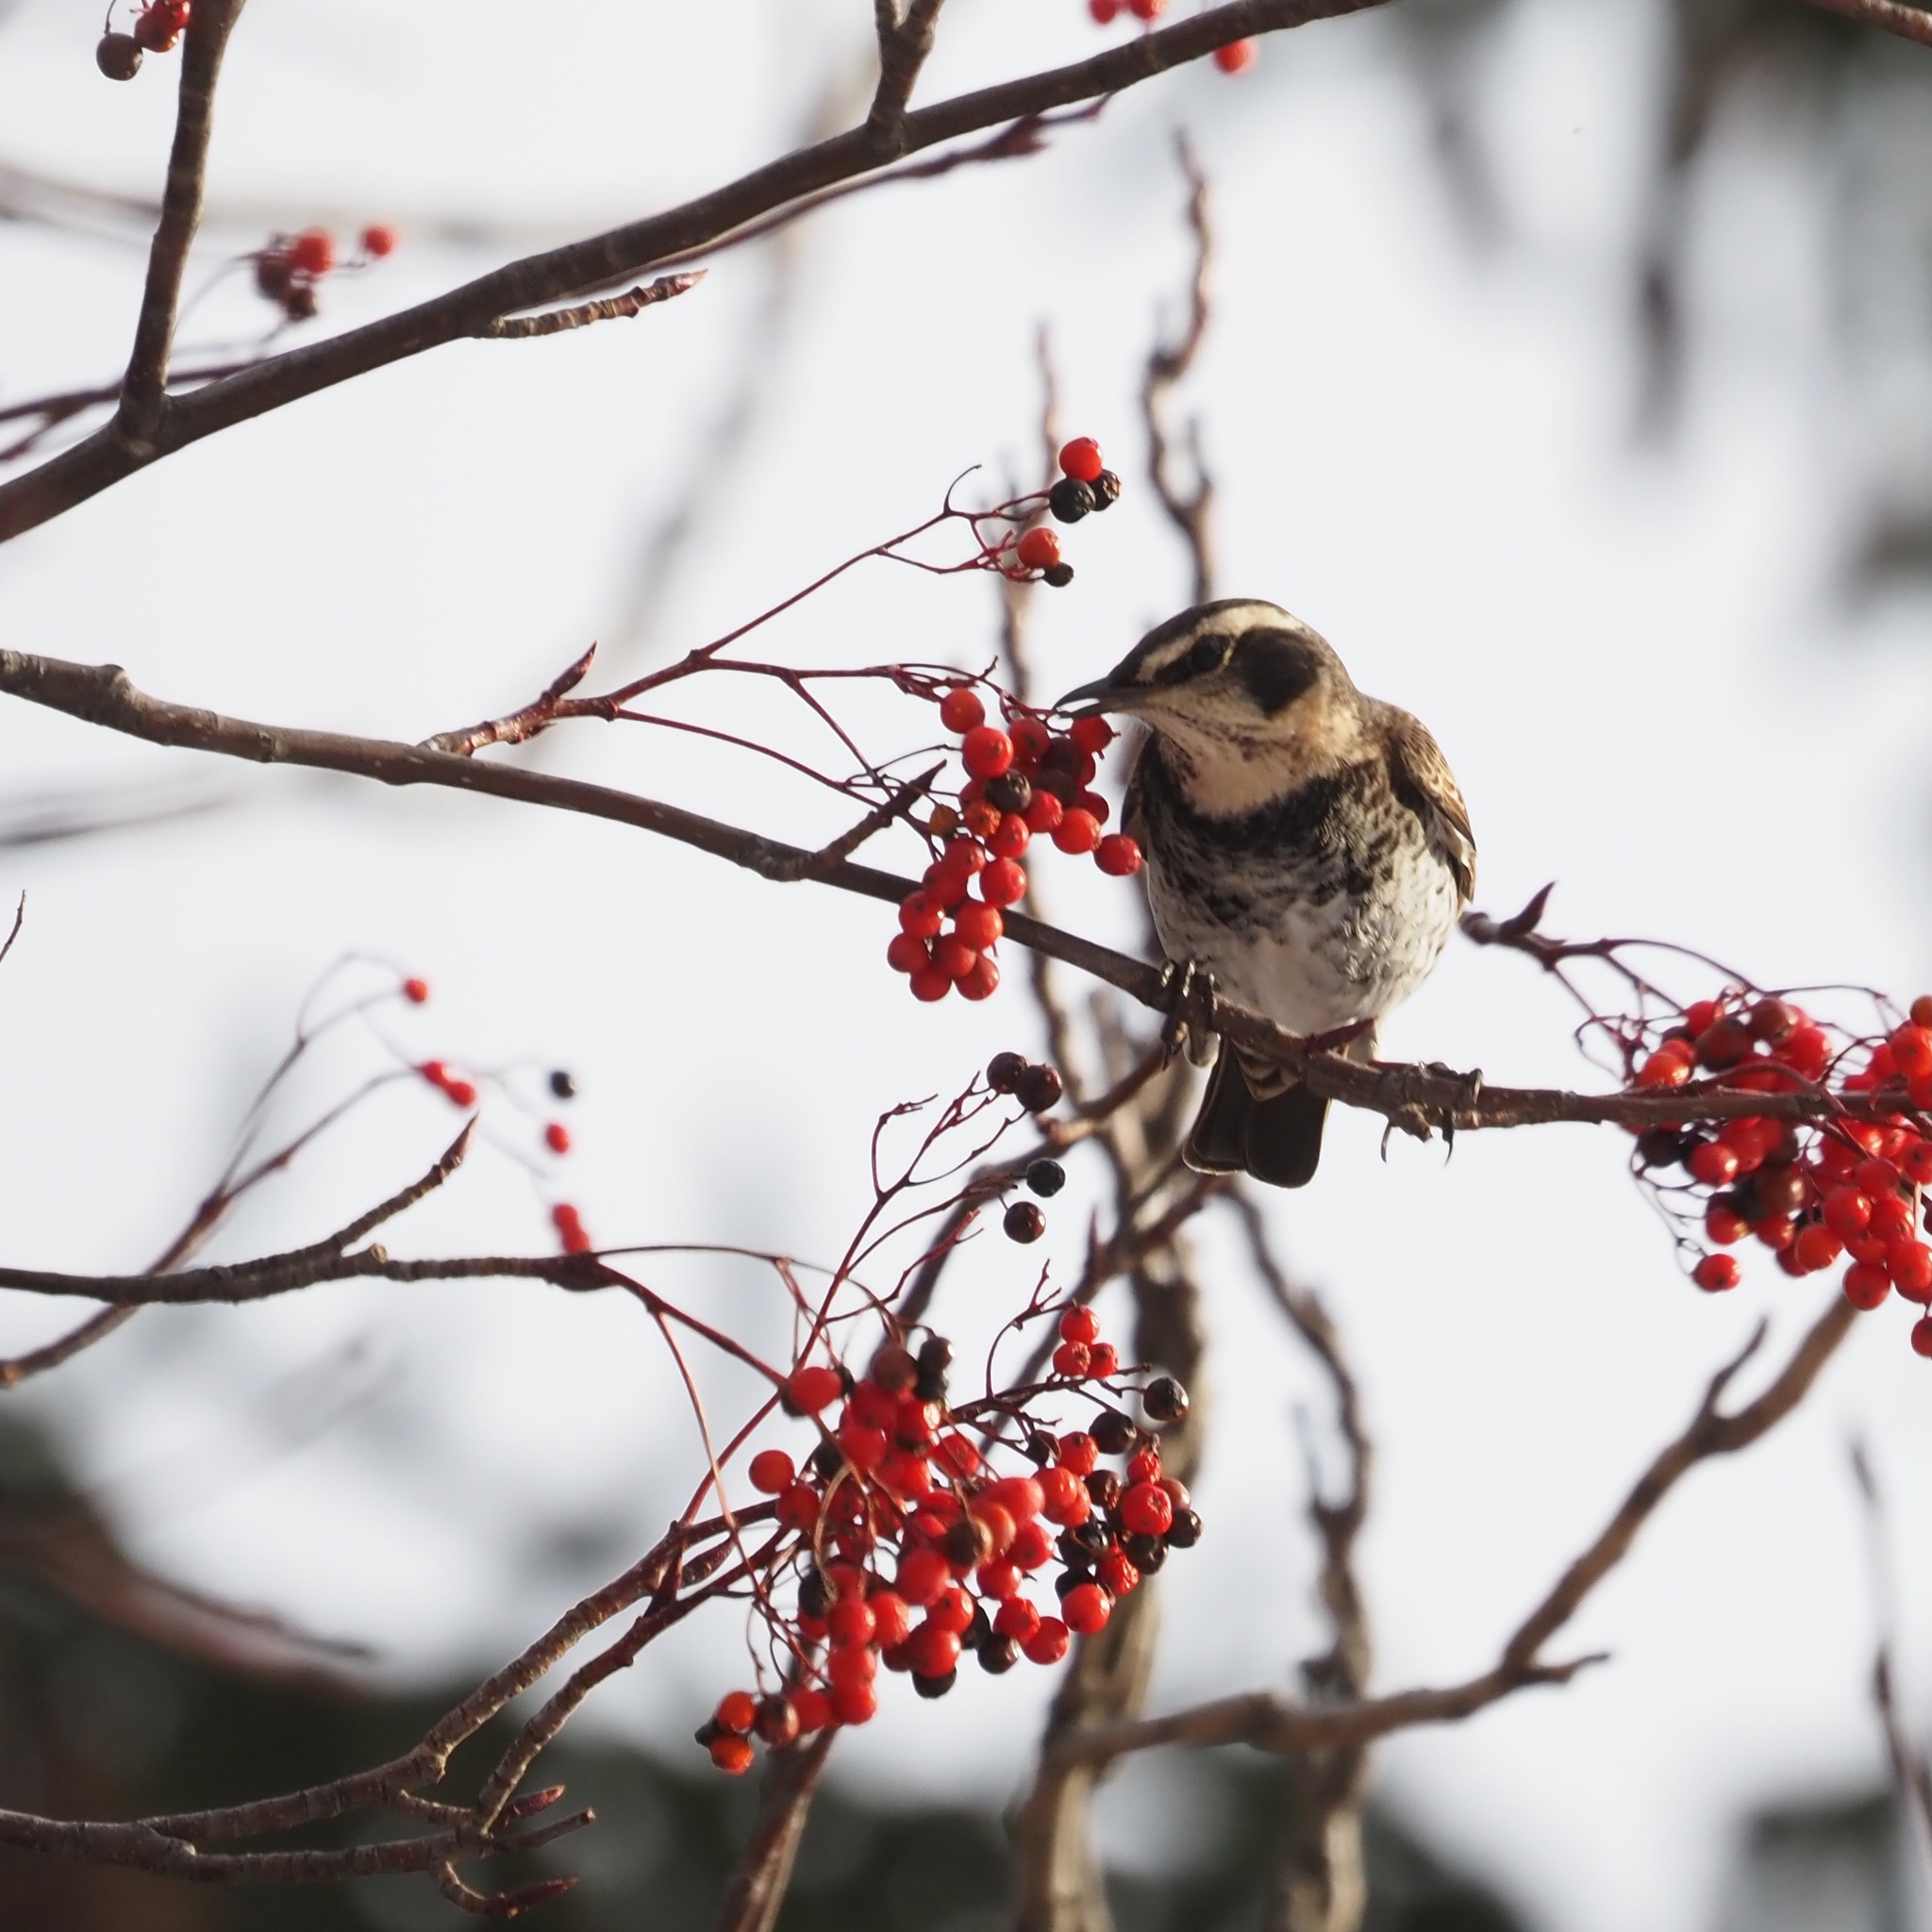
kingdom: Animalia
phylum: Chordata
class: Aves
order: Passeriformes
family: Turdidae
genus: Turdus
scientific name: Turdus eunomus
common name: Dusky thrush
